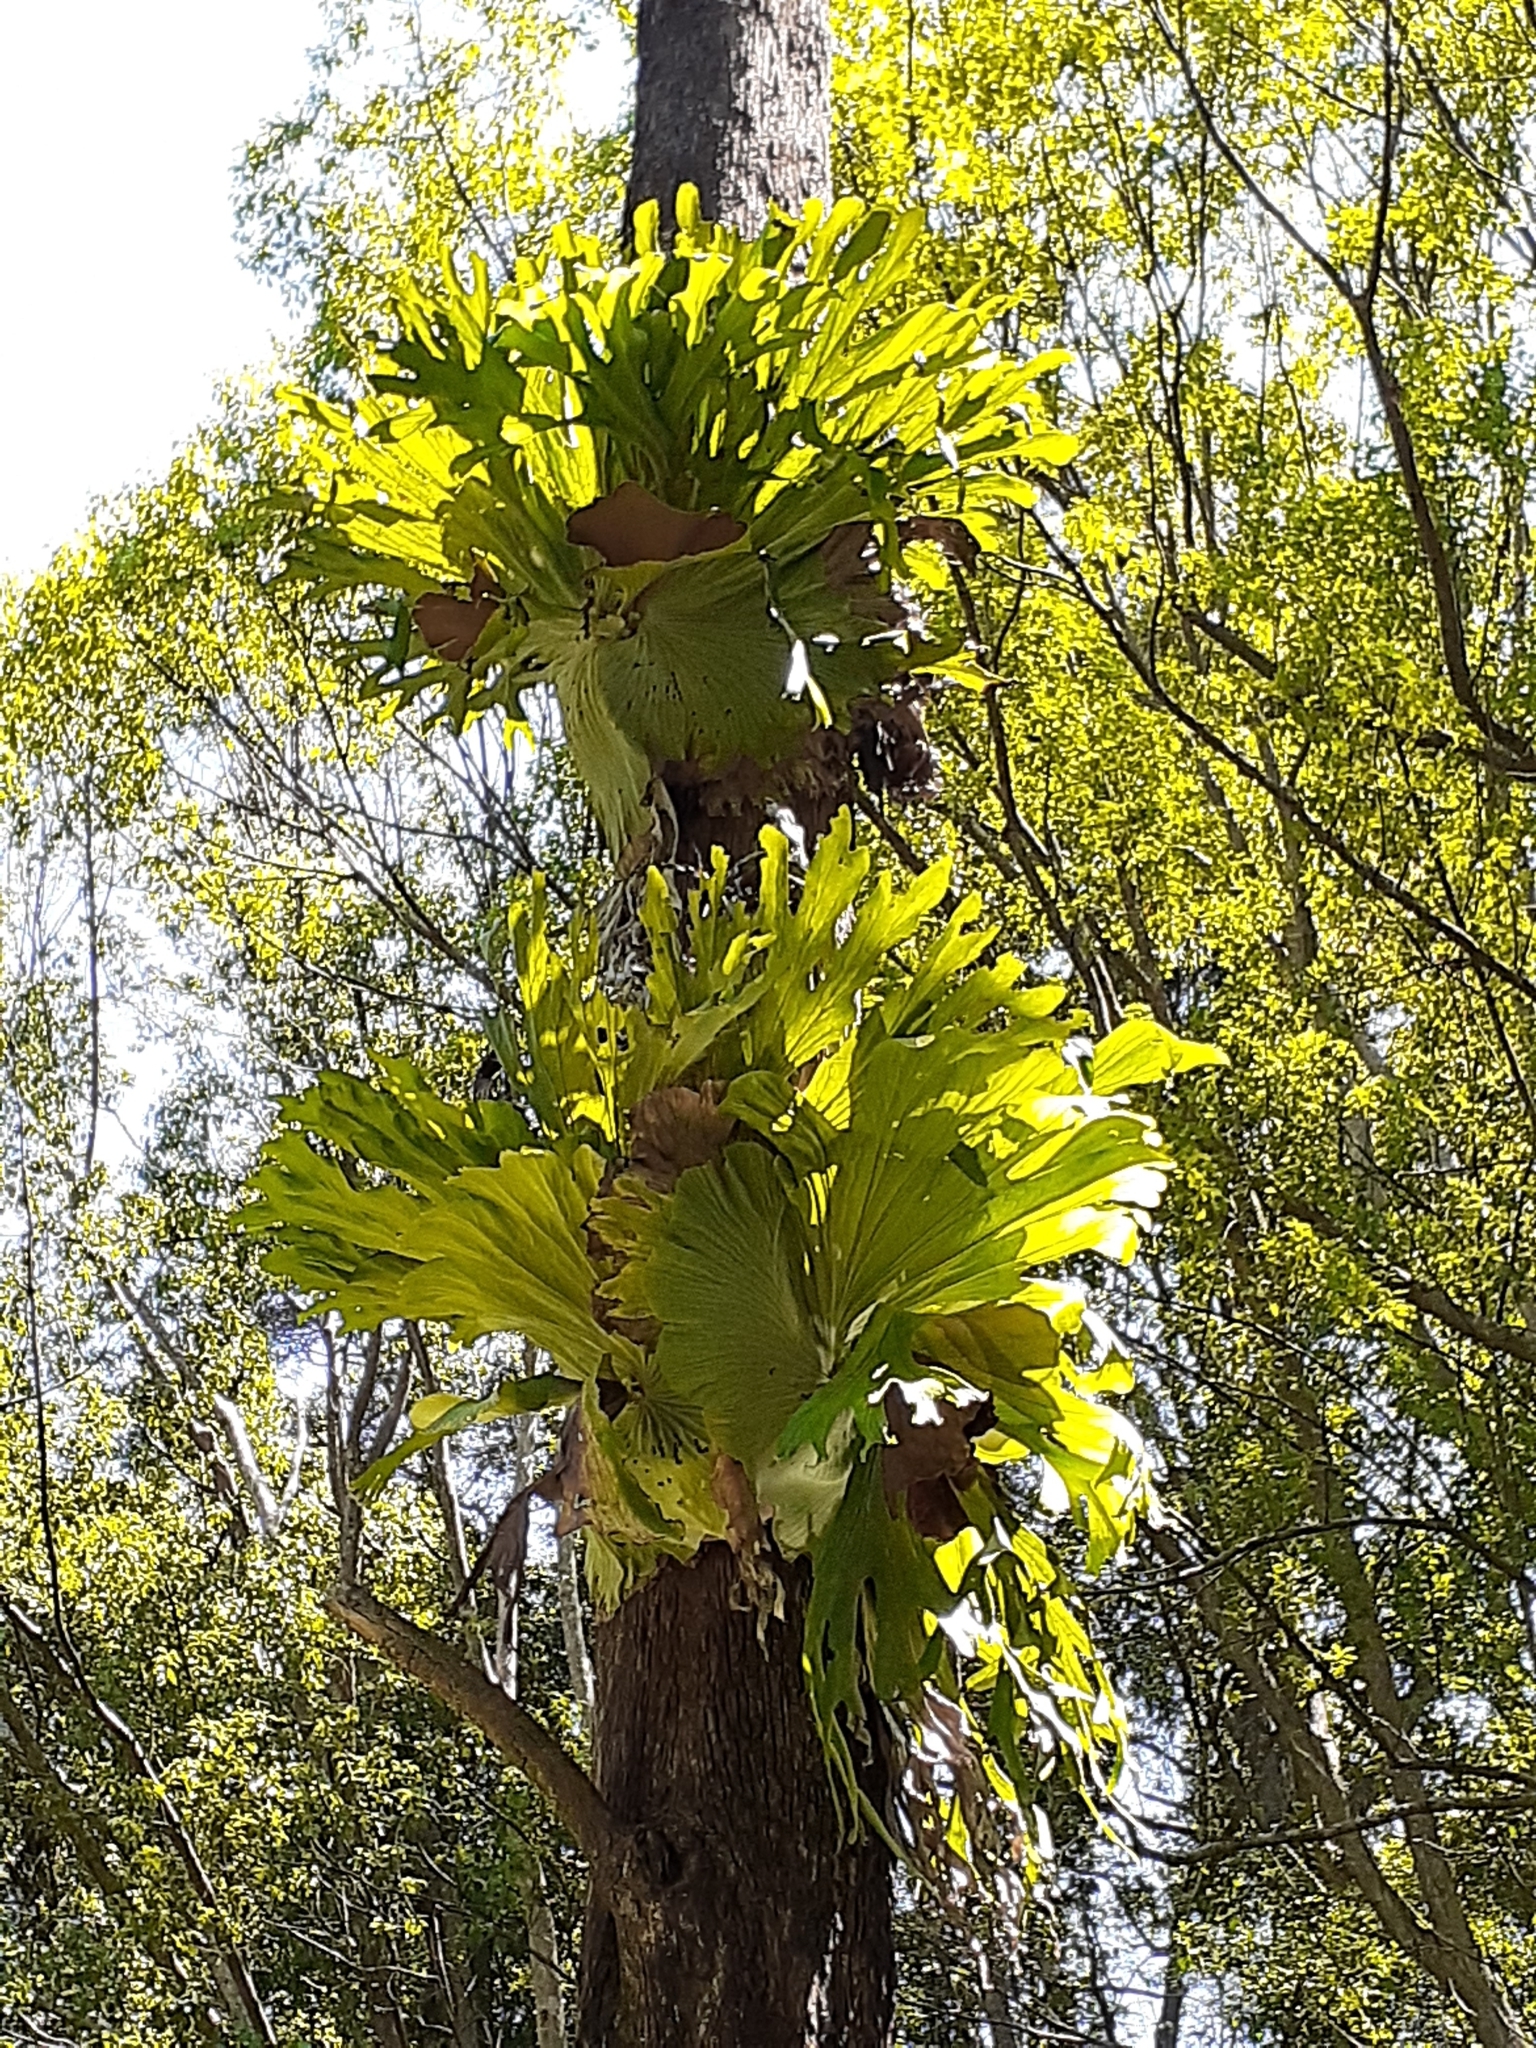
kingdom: Plantae
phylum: Tracheophyta
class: Polypodiopsida
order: Polypodiales
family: Polypodiaceae
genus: Platycerium
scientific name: Platycerium superbum
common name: Staghorn fern
